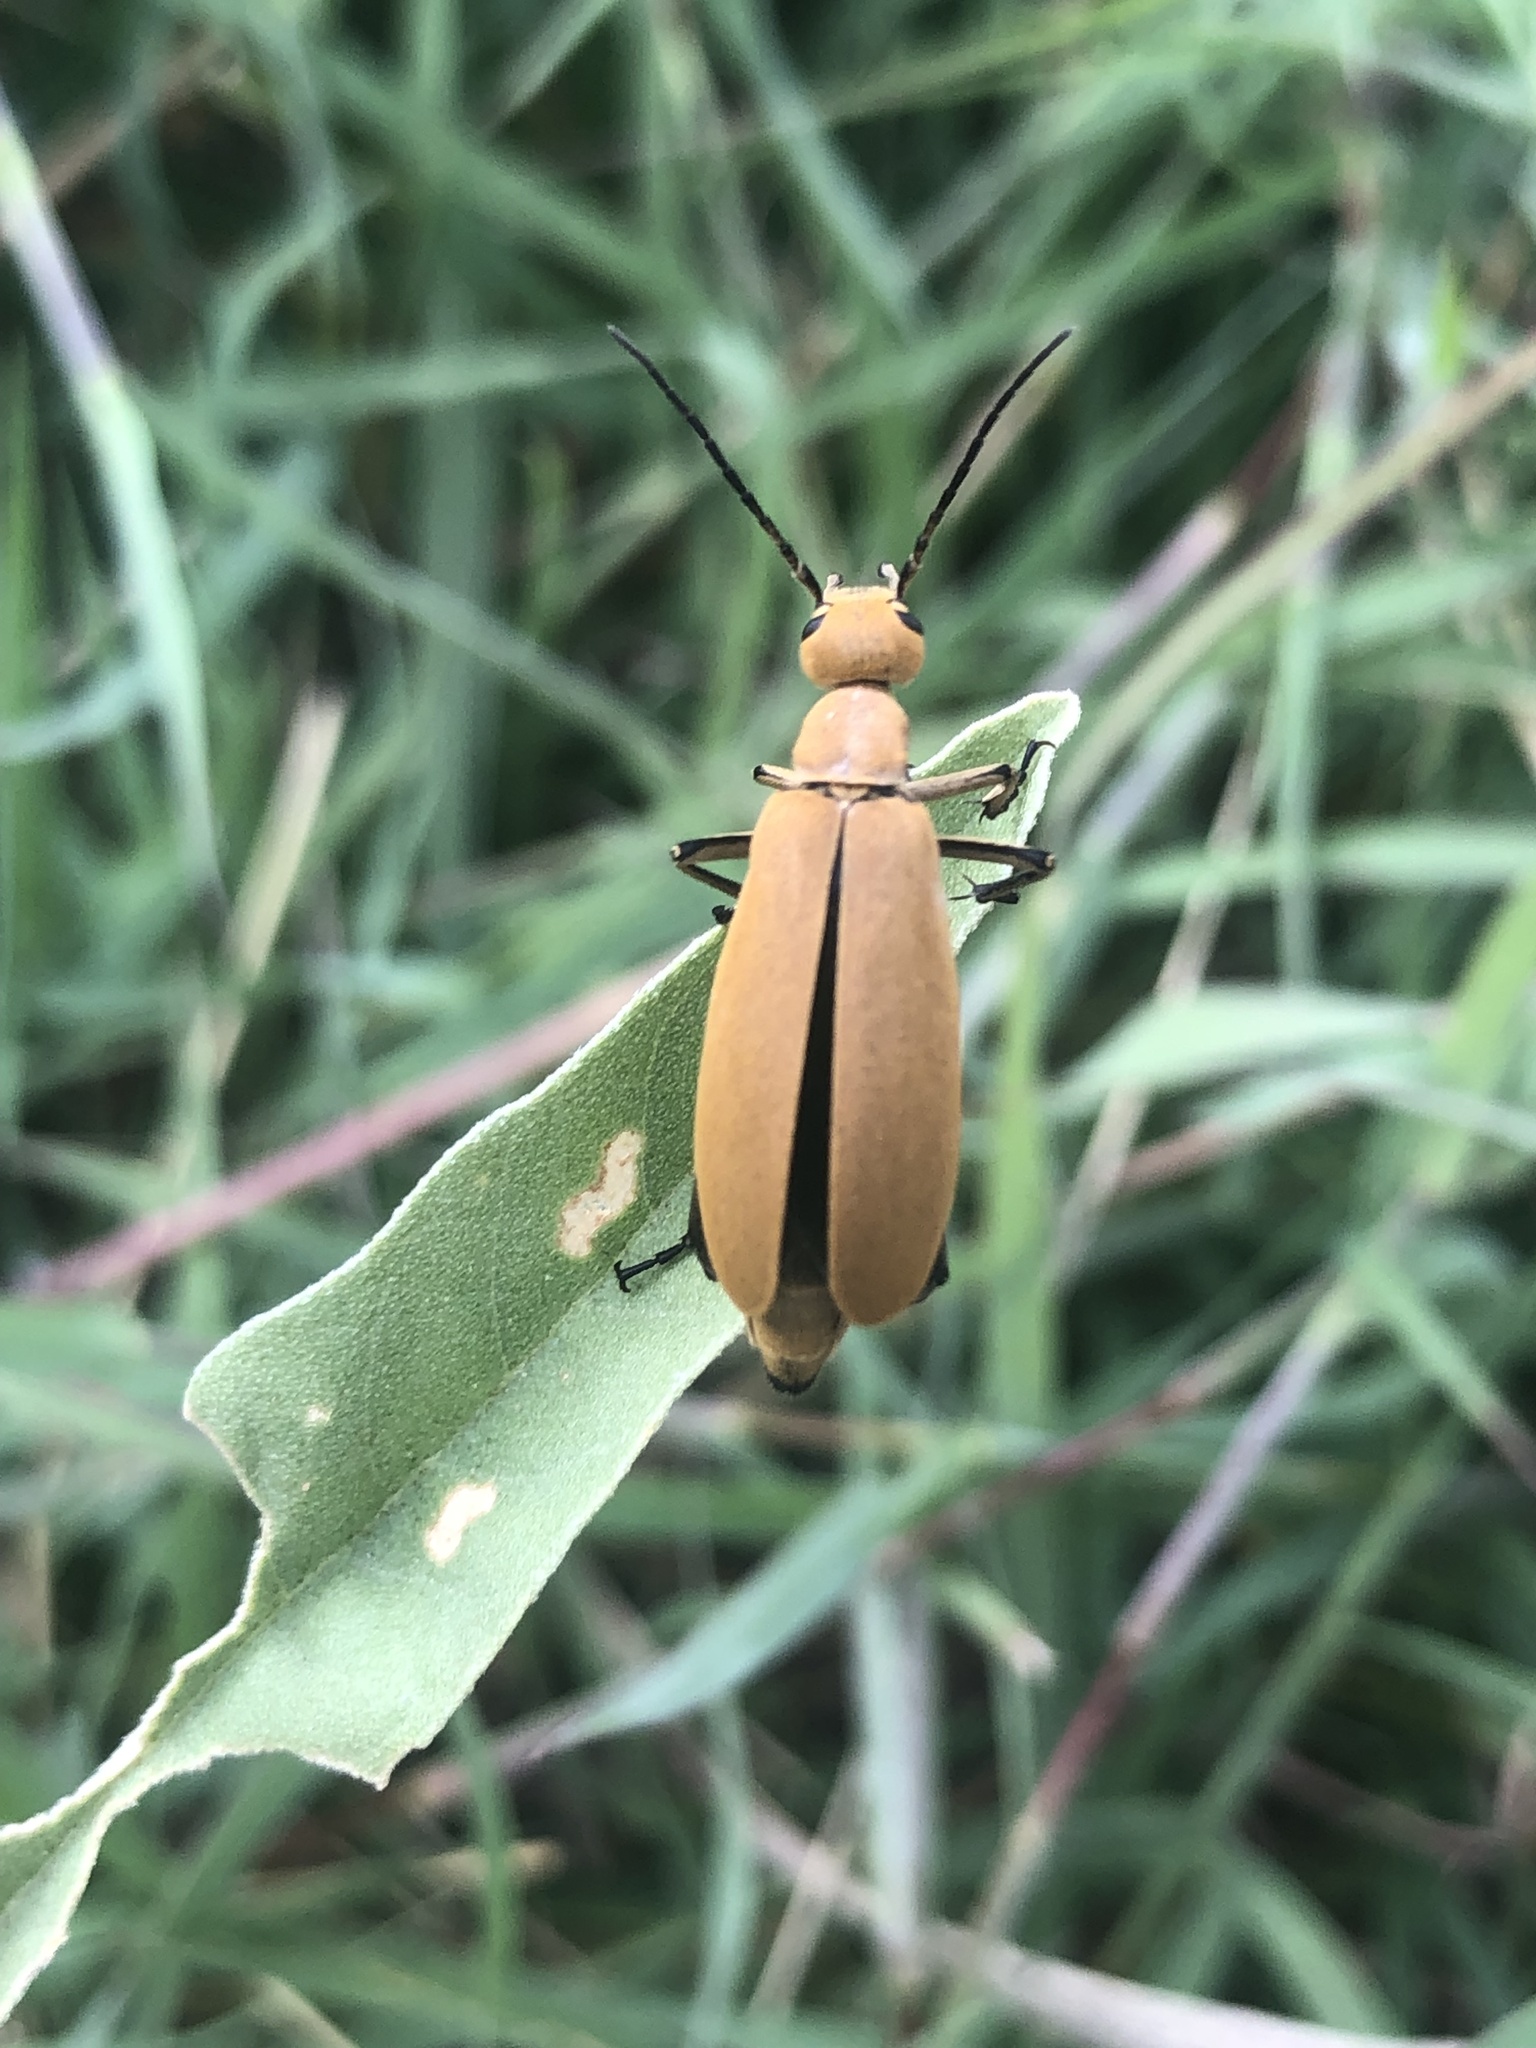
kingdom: Animalia
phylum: Arthropoda
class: Insecta
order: Coleoptera
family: Meloidae
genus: Epicauta
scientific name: Epicauta immaculata
